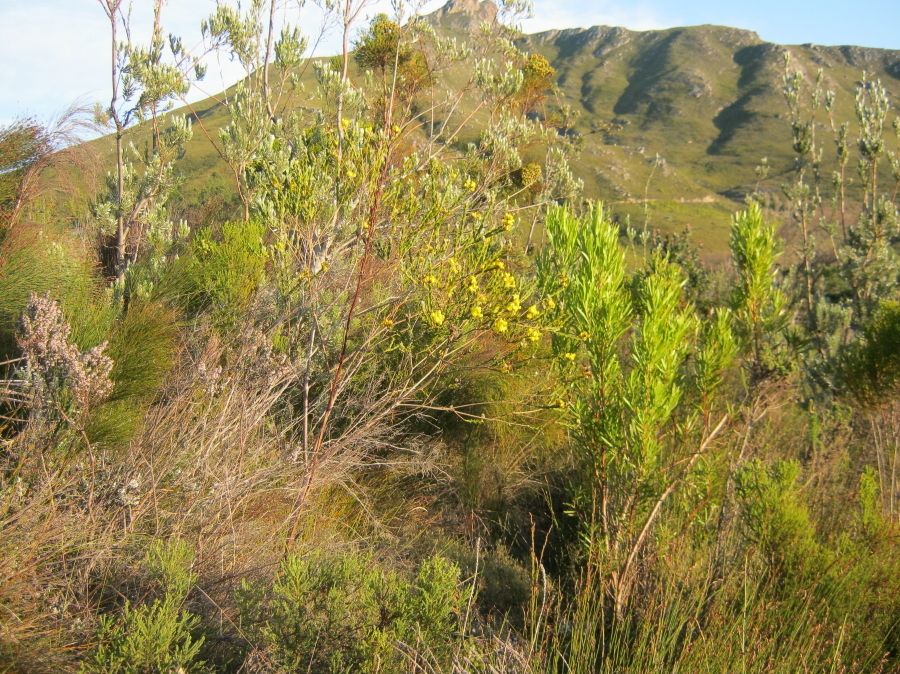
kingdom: Plantae
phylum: Tracheophyta
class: Magnoliopsida
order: Proteales
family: Proteaceae
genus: Leucadendron
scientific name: Leucadendron eucalyptifolium
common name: Gum-leaved conebush
